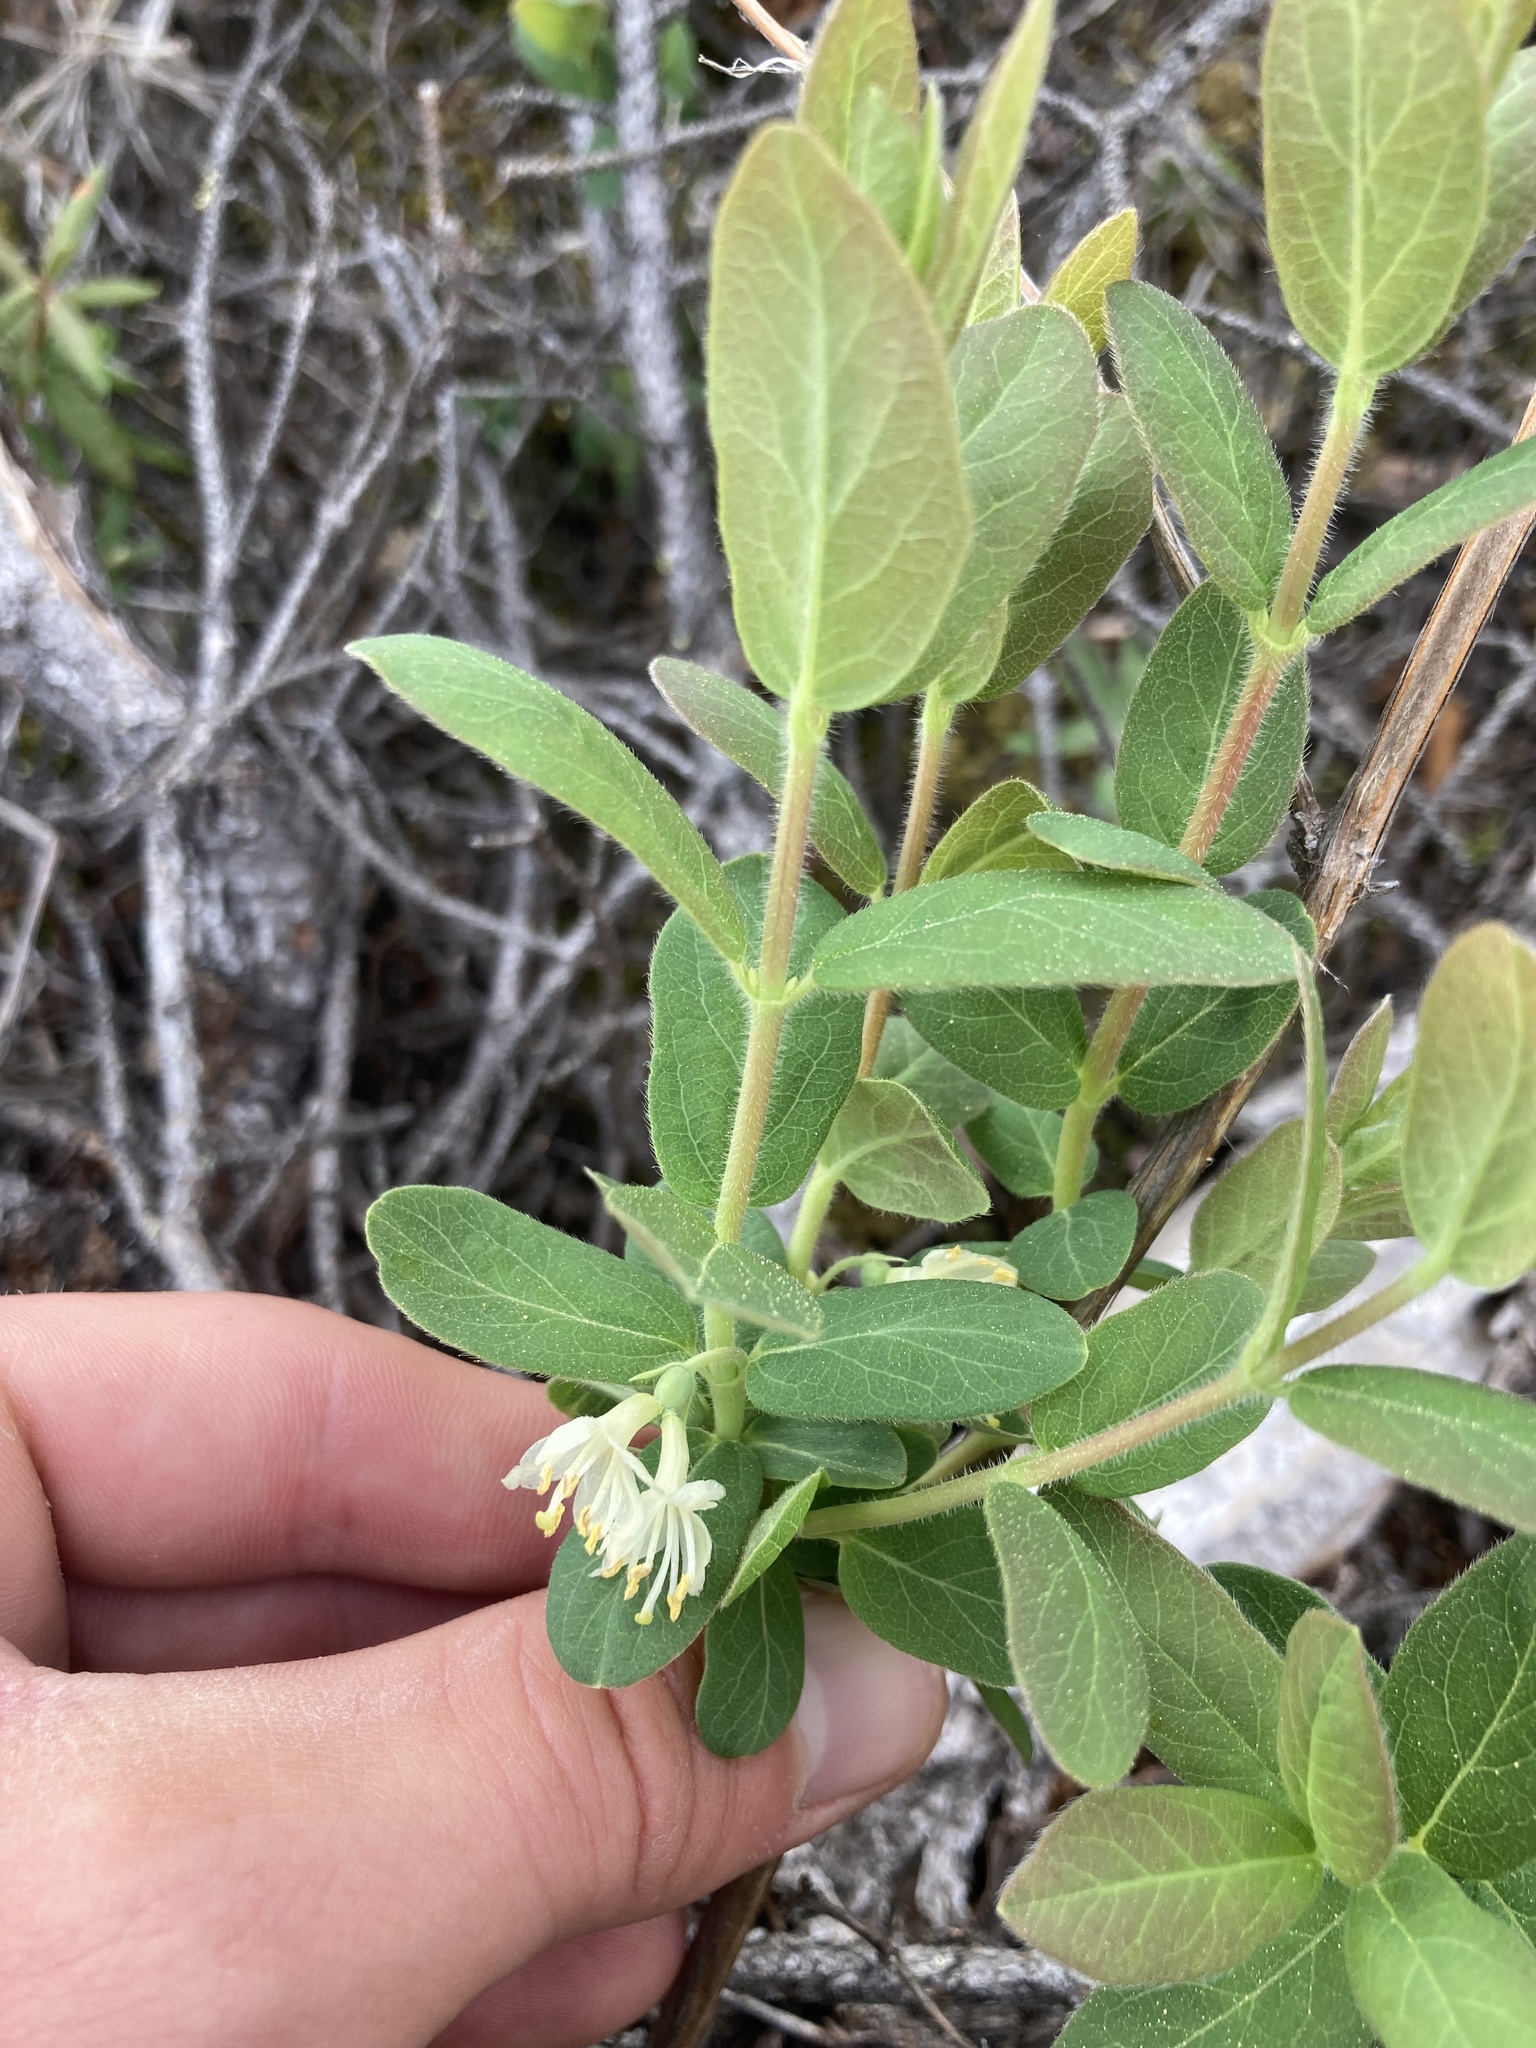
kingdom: Plantae
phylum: Tracheophyta
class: Magnoliopsida
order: Dipsacales
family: Caprifoliaceae
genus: Lonicera
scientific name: Lonicera villosa
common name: Mountain fly-honeysuckle
